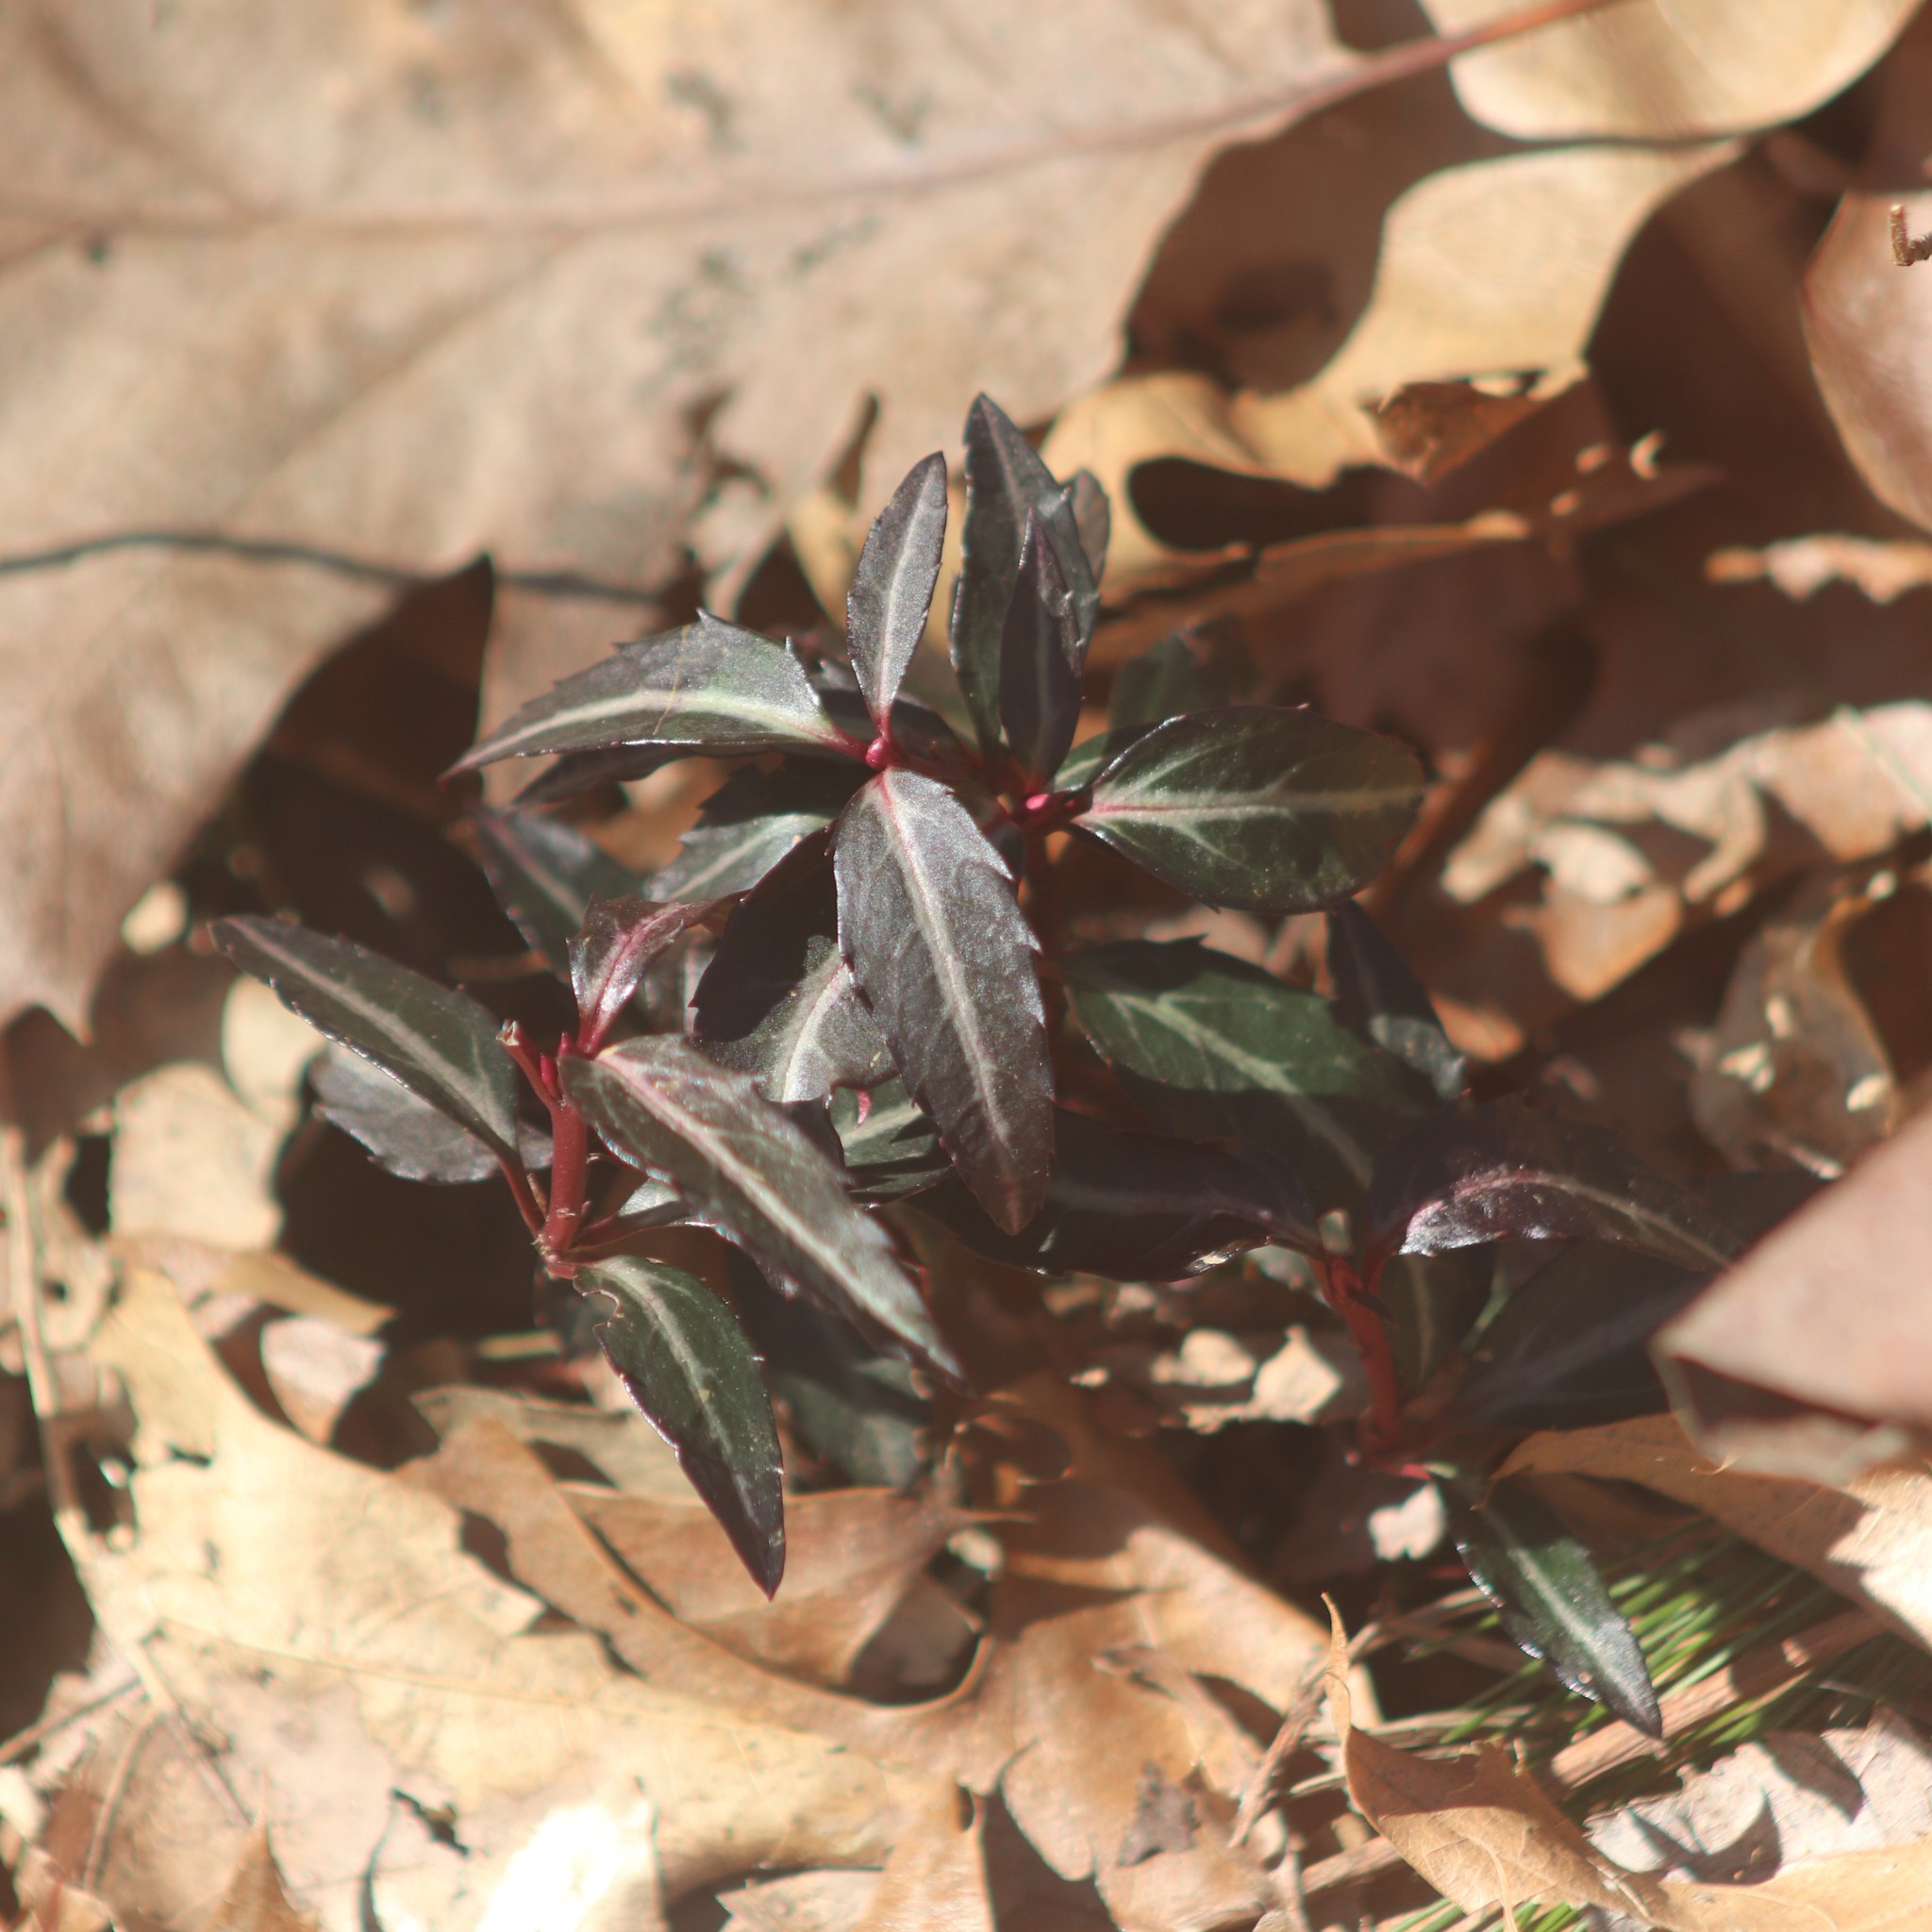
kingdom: Plantae
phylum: Tracheophyta
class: Magnoliopsida
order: Ericales
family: Ericaceae
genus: Chimaphila
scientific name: Chimaphila maculata
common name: Spotted pipsissewa
